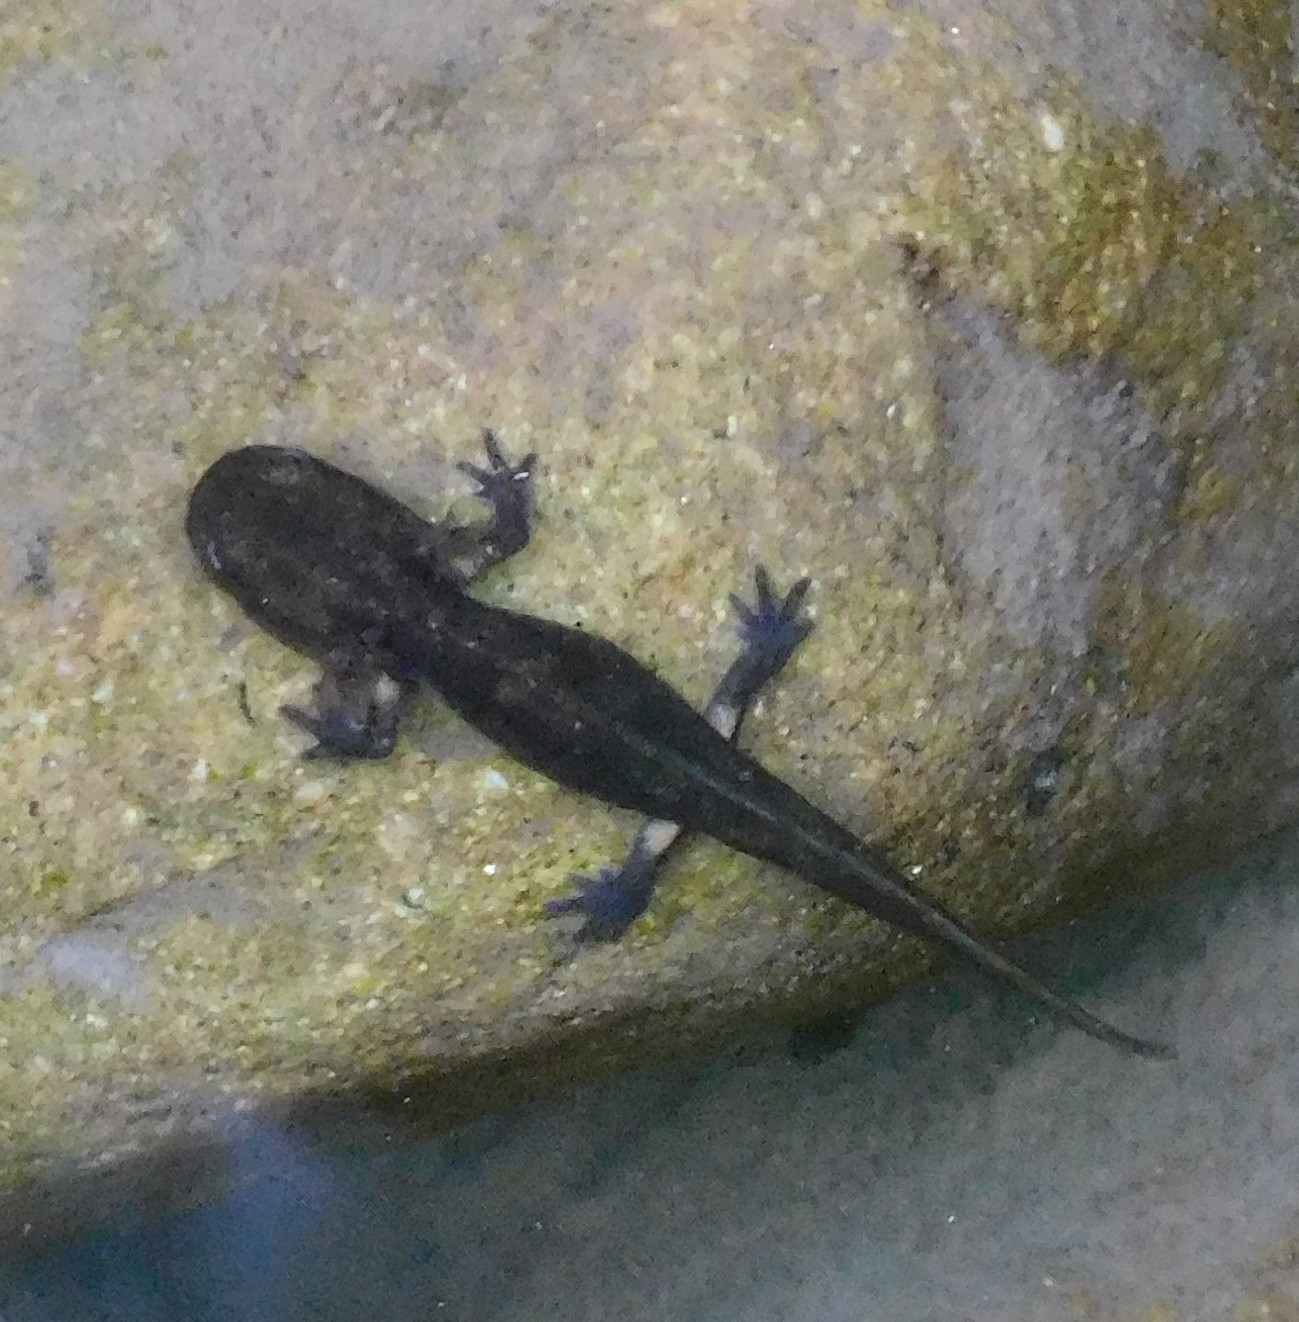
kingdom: Animalia
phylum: Chordata
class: Amphibia
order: Caudata
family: Salamandridae
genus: Salamandra
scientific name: Salamandra salamandra
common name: Fire salamander
